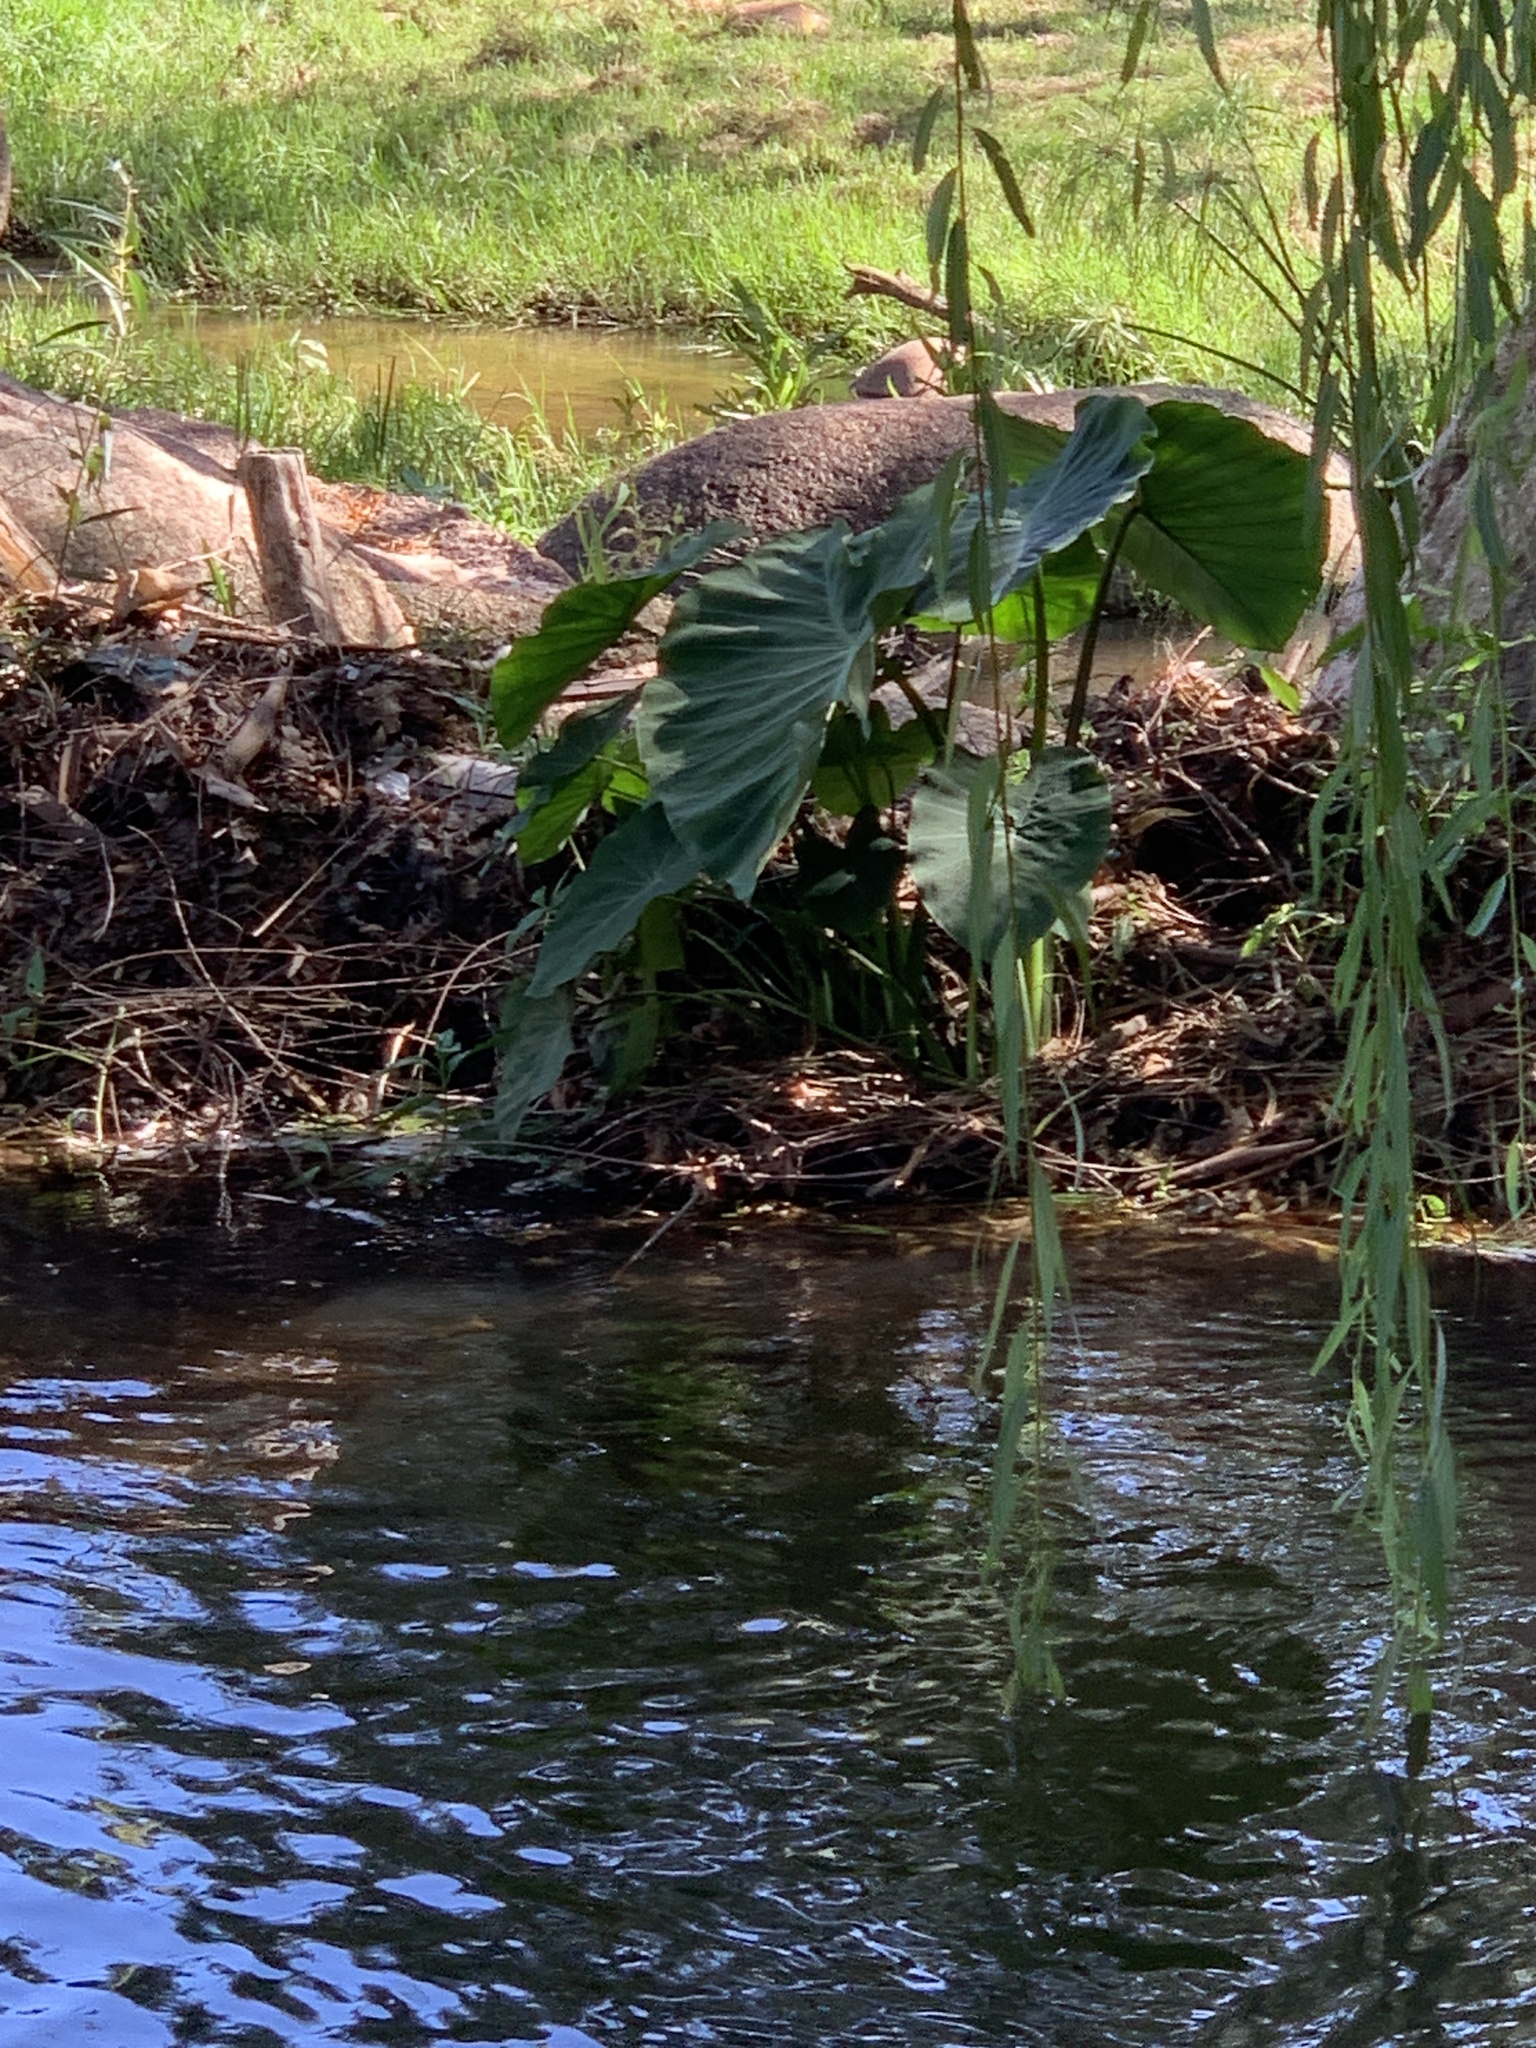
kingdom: Plantae
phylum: Tracheophyta
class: Liliopsida
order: Alismatales
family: Araceae
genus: Colocasia
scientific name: Colocasia esculenta
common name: Taro
